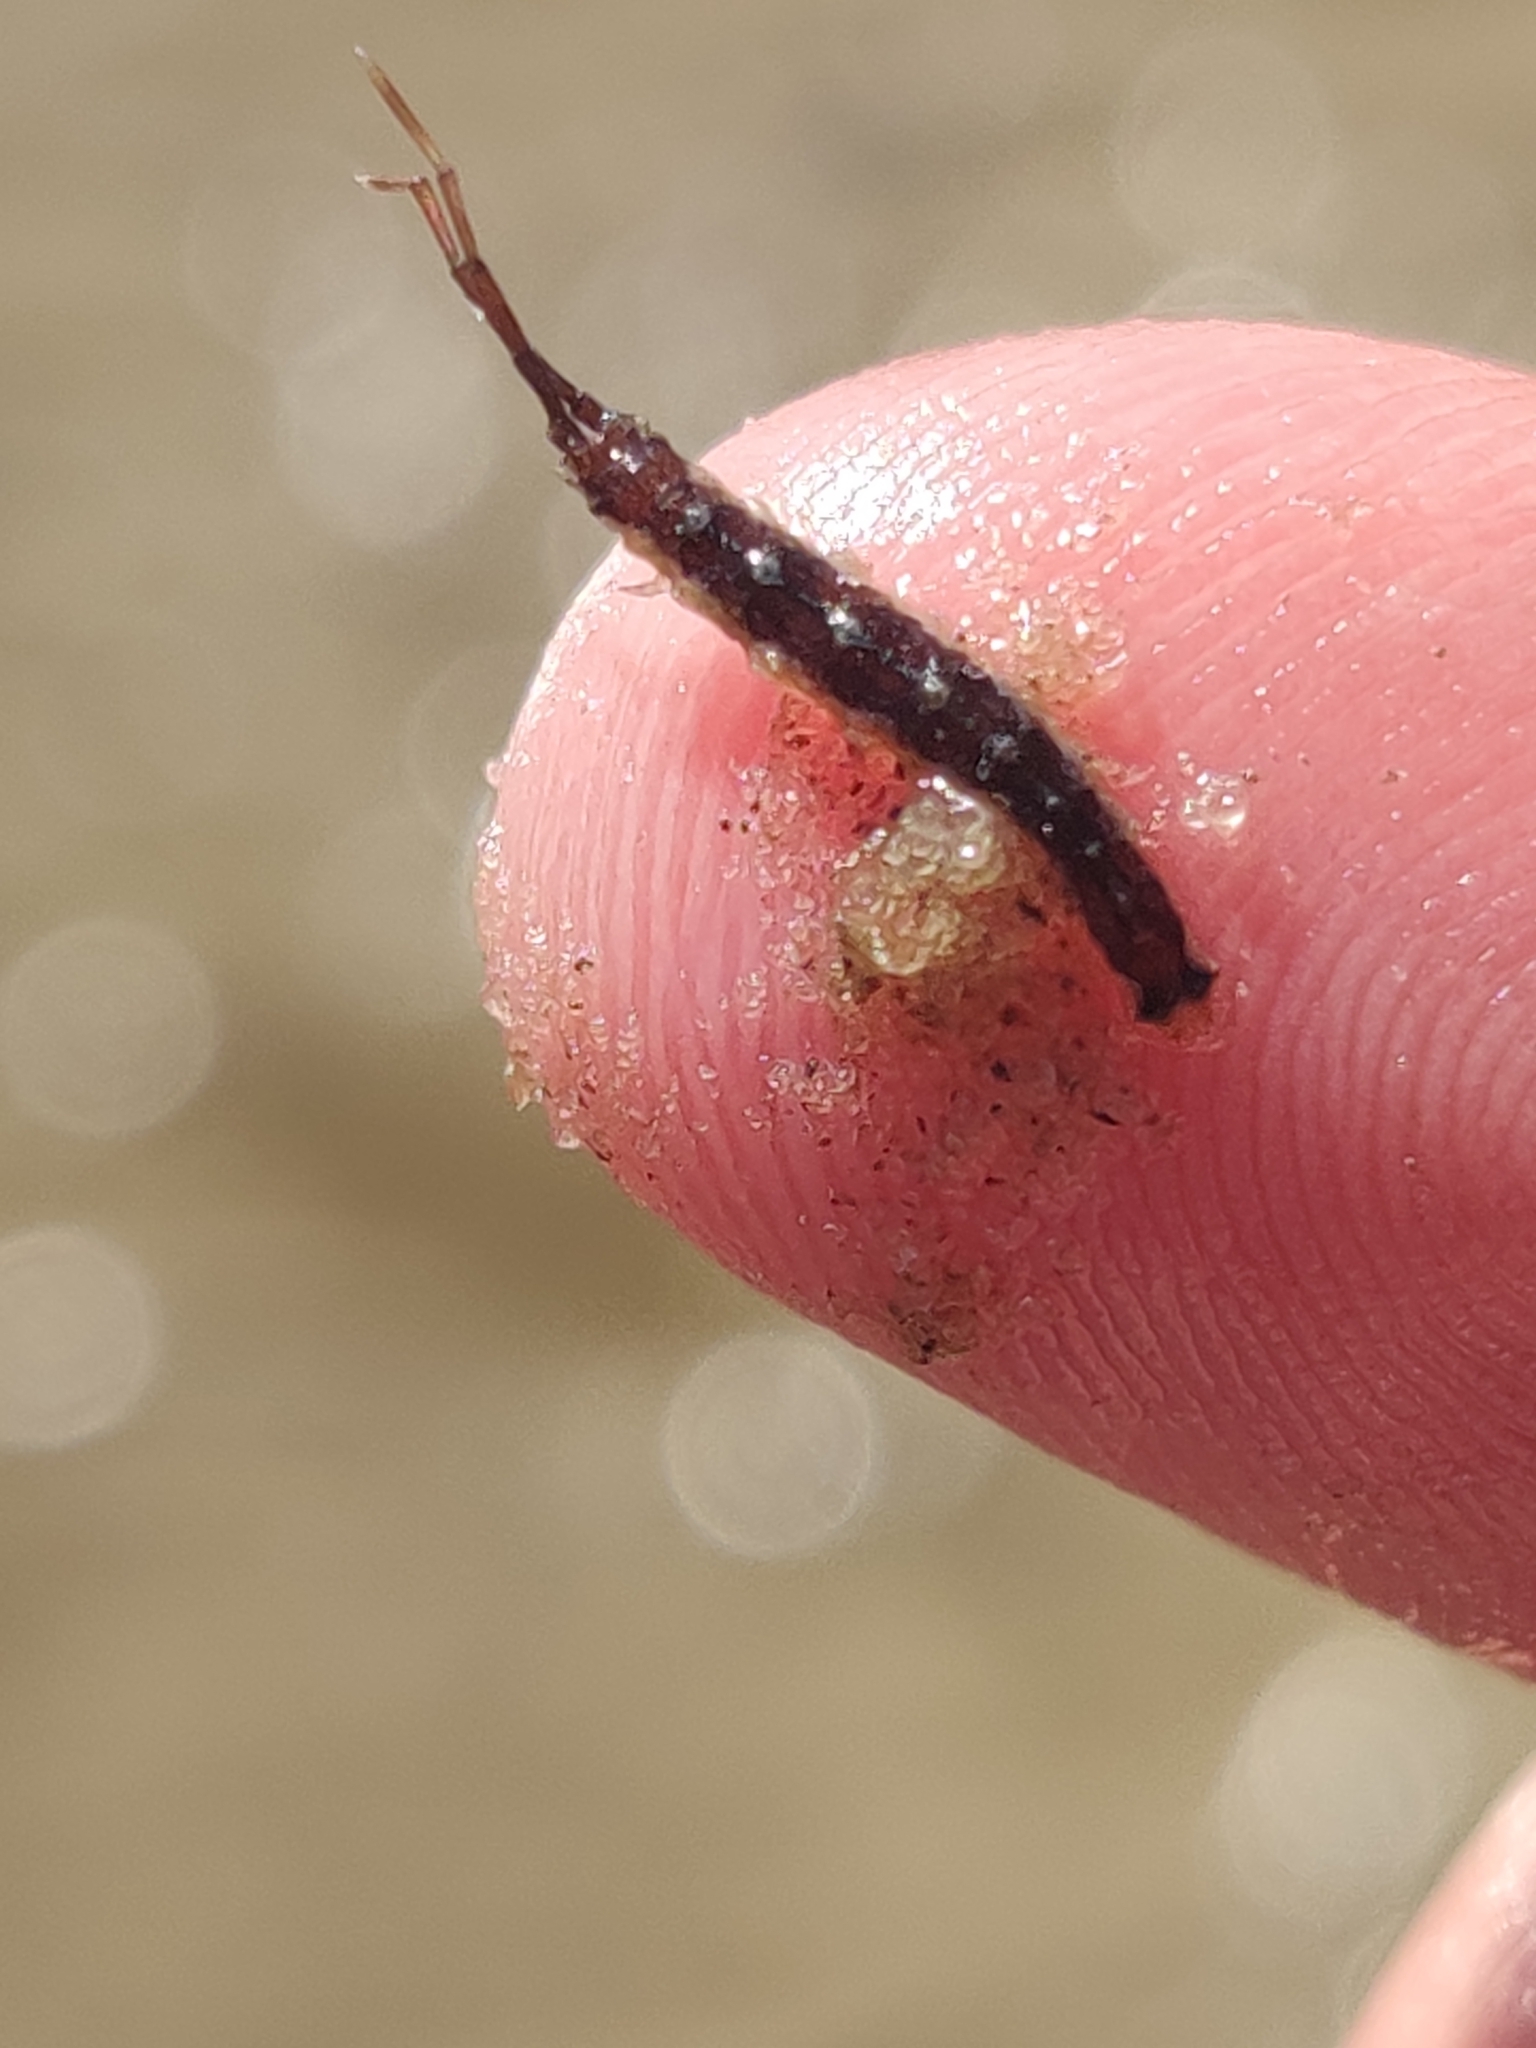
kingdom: Animalia
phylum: Arthropoda
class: Malacostraca
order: Isopoda
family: Idoteidae
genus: Erichsonella
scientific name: Erichsonella attenuata
